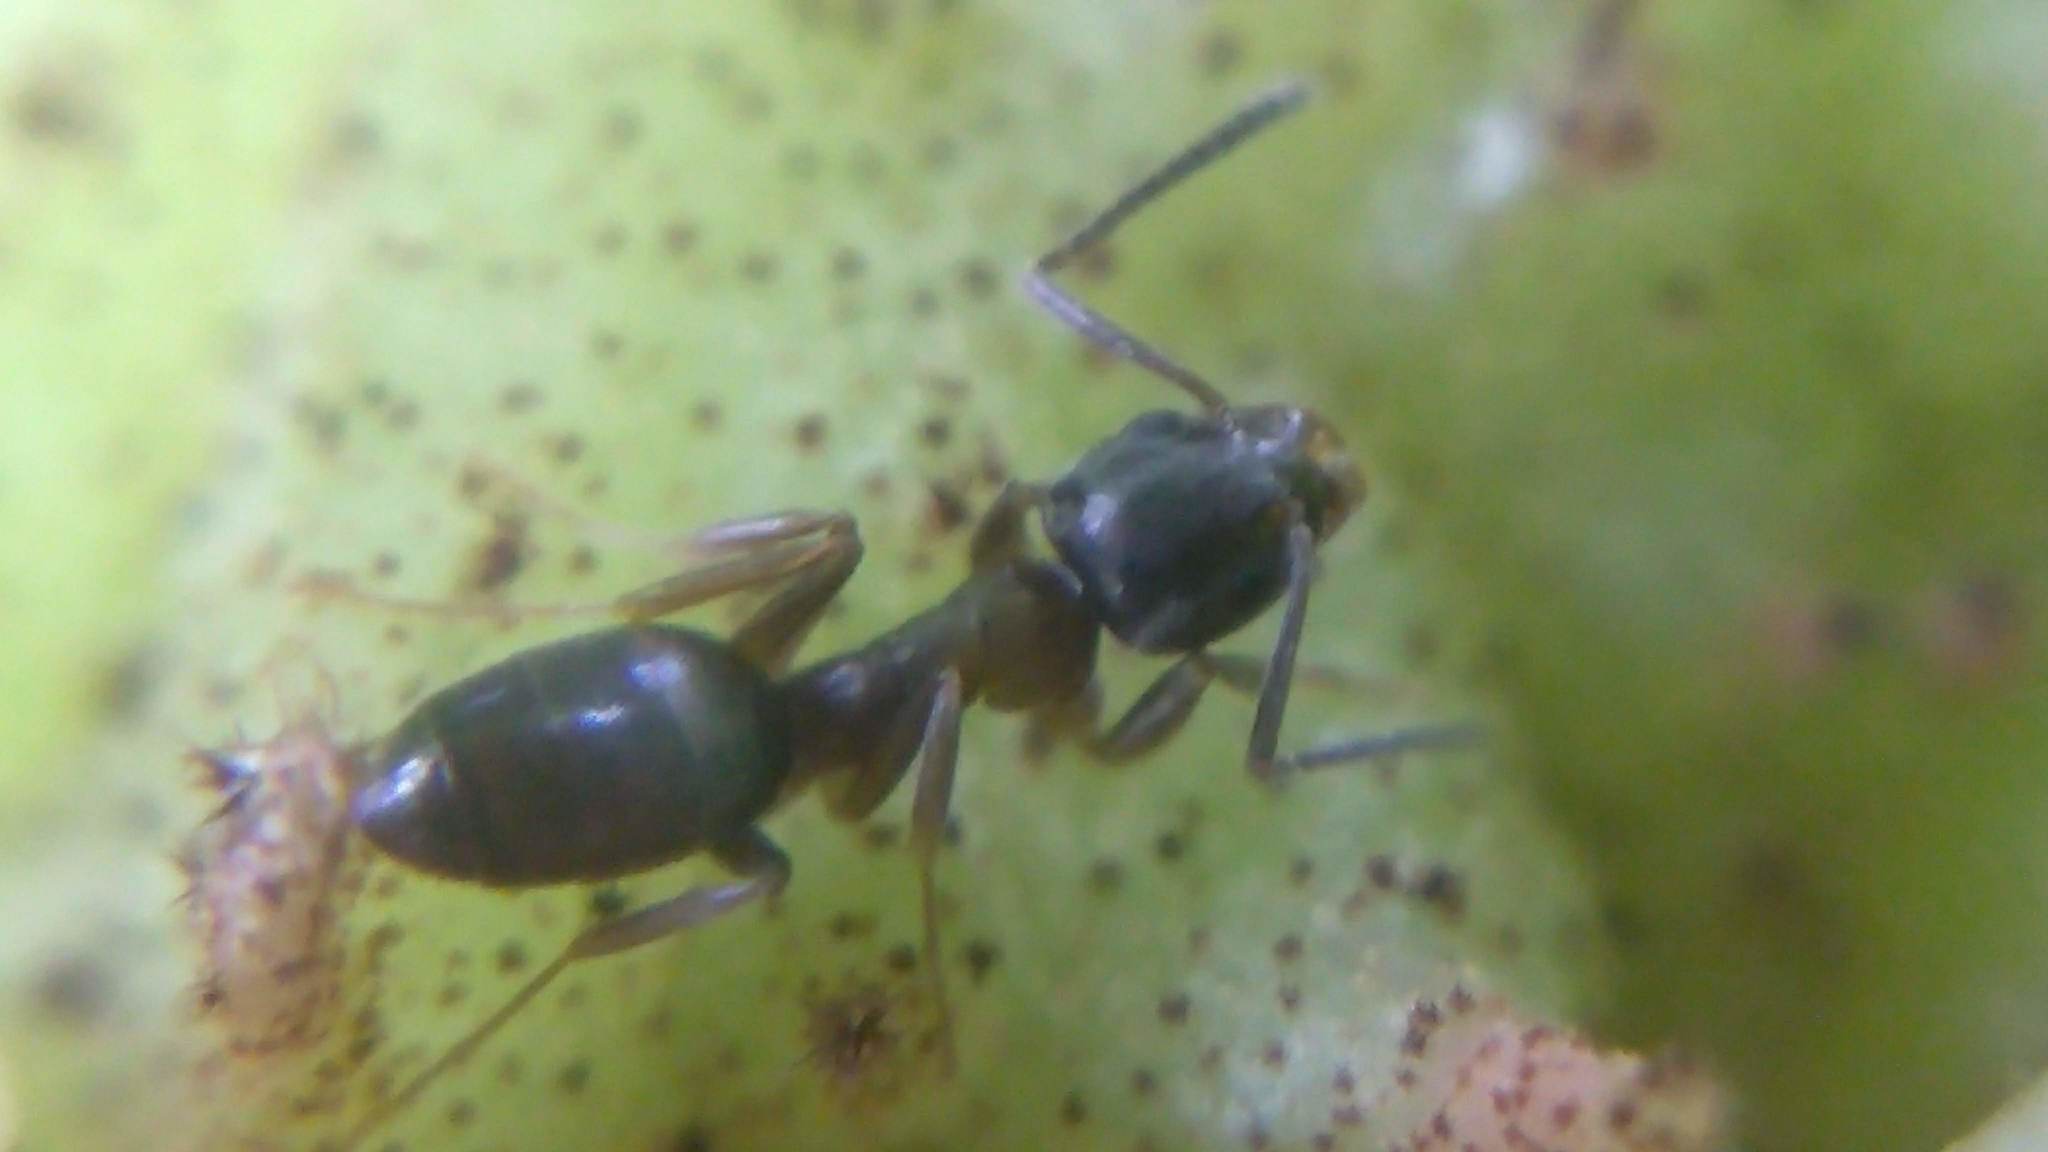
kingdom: Animalia
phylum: Arthropoda
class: Insecta
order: Hymenoptera
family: Formicidae
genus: Tapinoma
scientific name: Tapinoma sessile
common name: Odorous house ant
